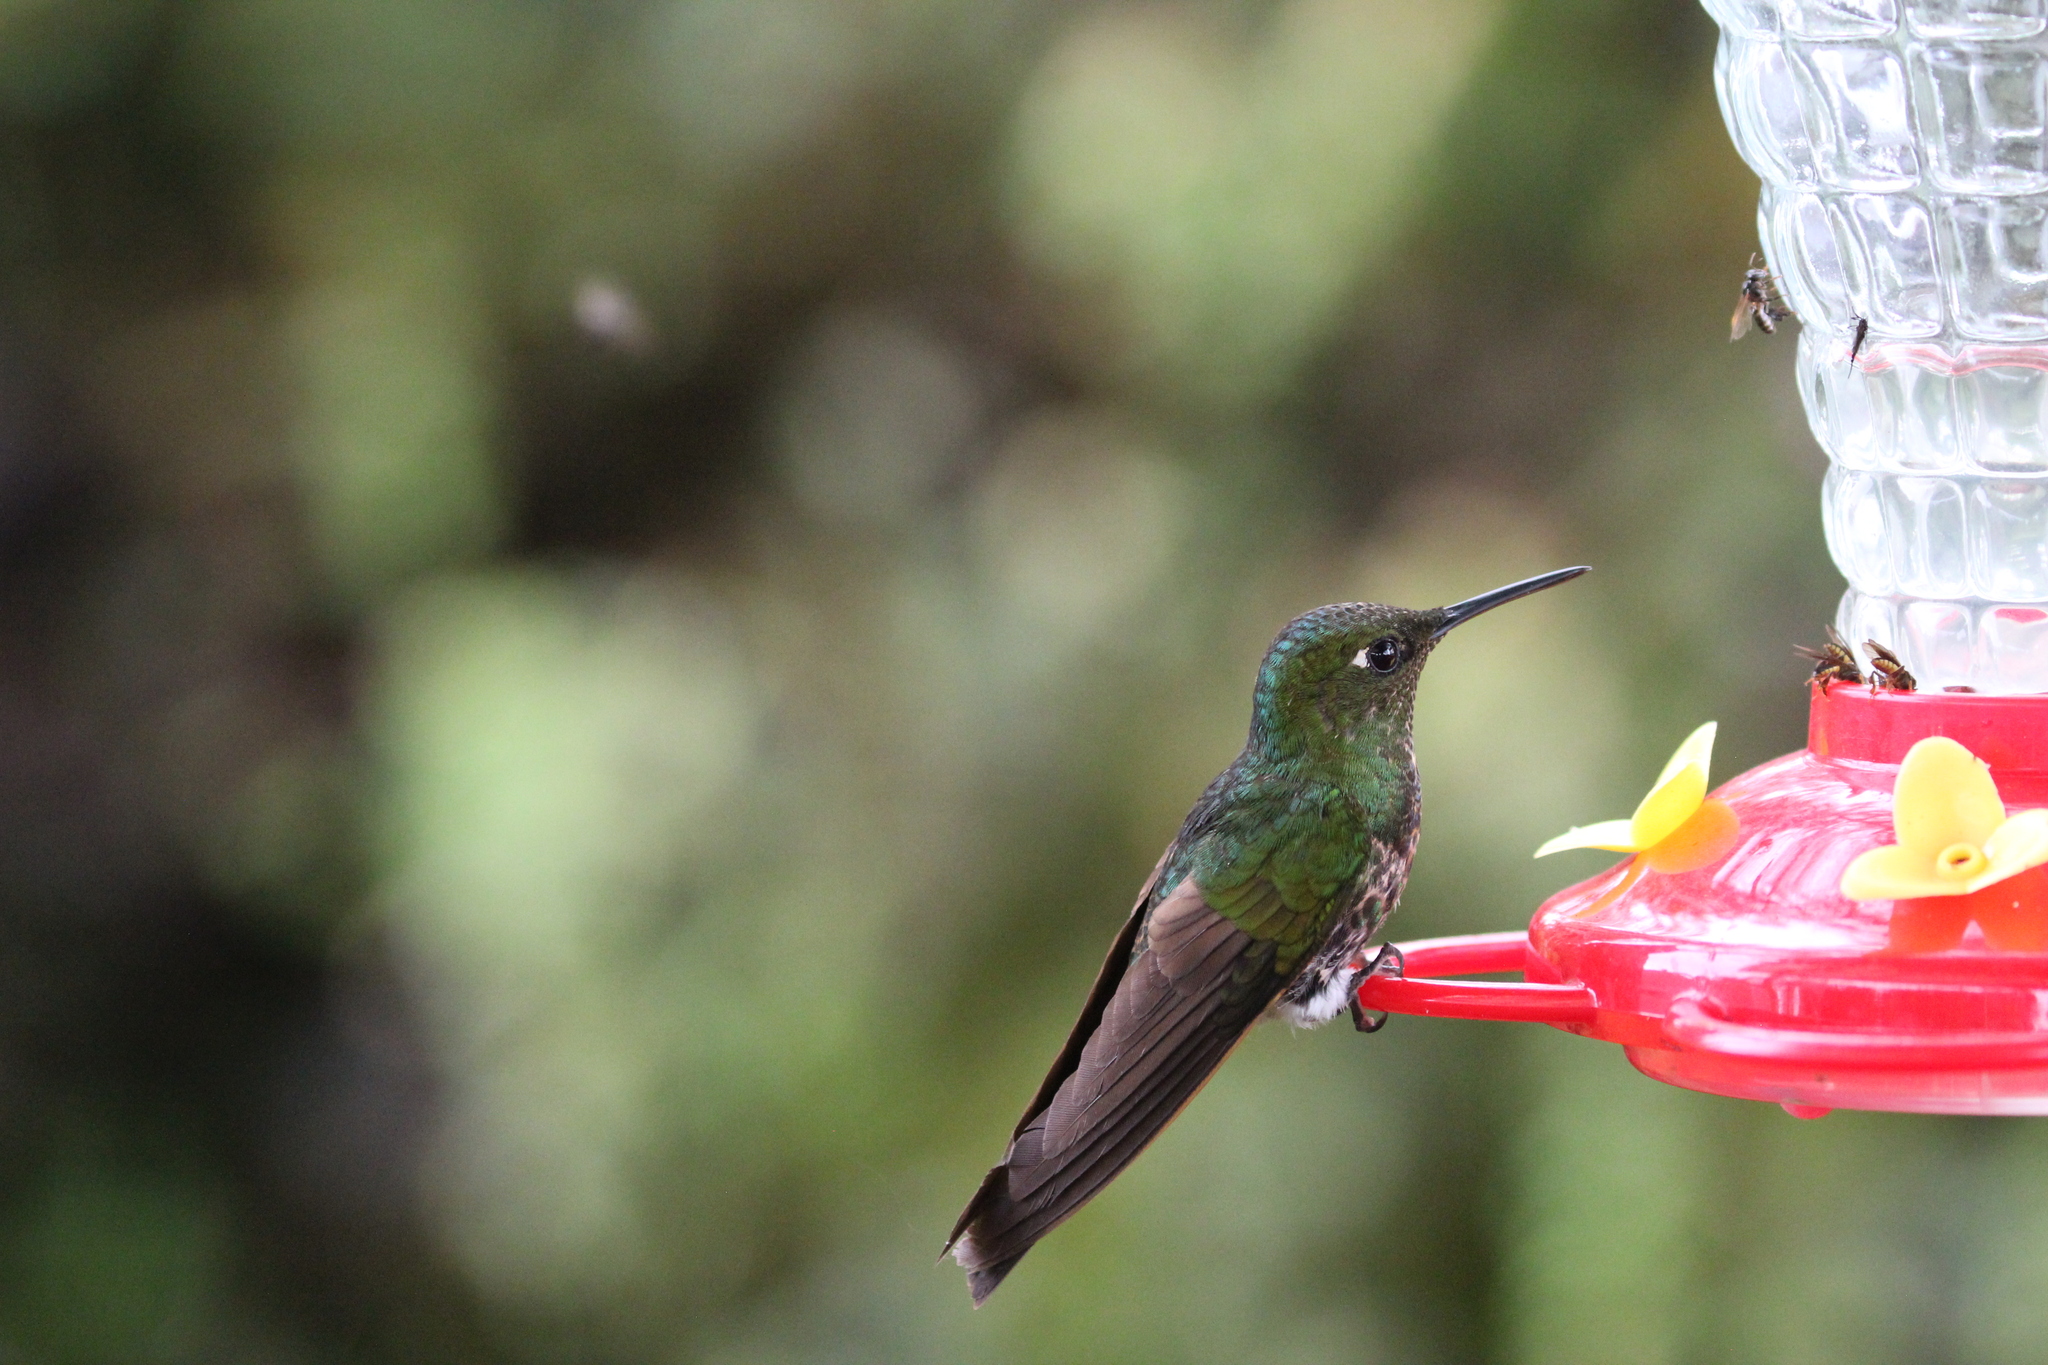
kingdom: Animalia
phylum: Chordata
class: Aves
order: Apodiformes
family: Trochilidae
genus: Boissonneaua
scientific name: Boissonneaua flavescens
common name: Buff-tailed coronet
